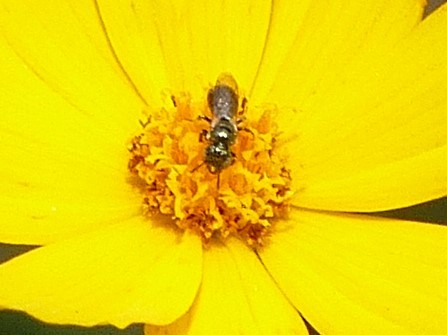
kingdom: Animalia
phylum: Arthropoda
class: Insecta
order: Hymenoptera
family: Apidae
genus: Zadontomerus
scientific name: Zadontomerus
